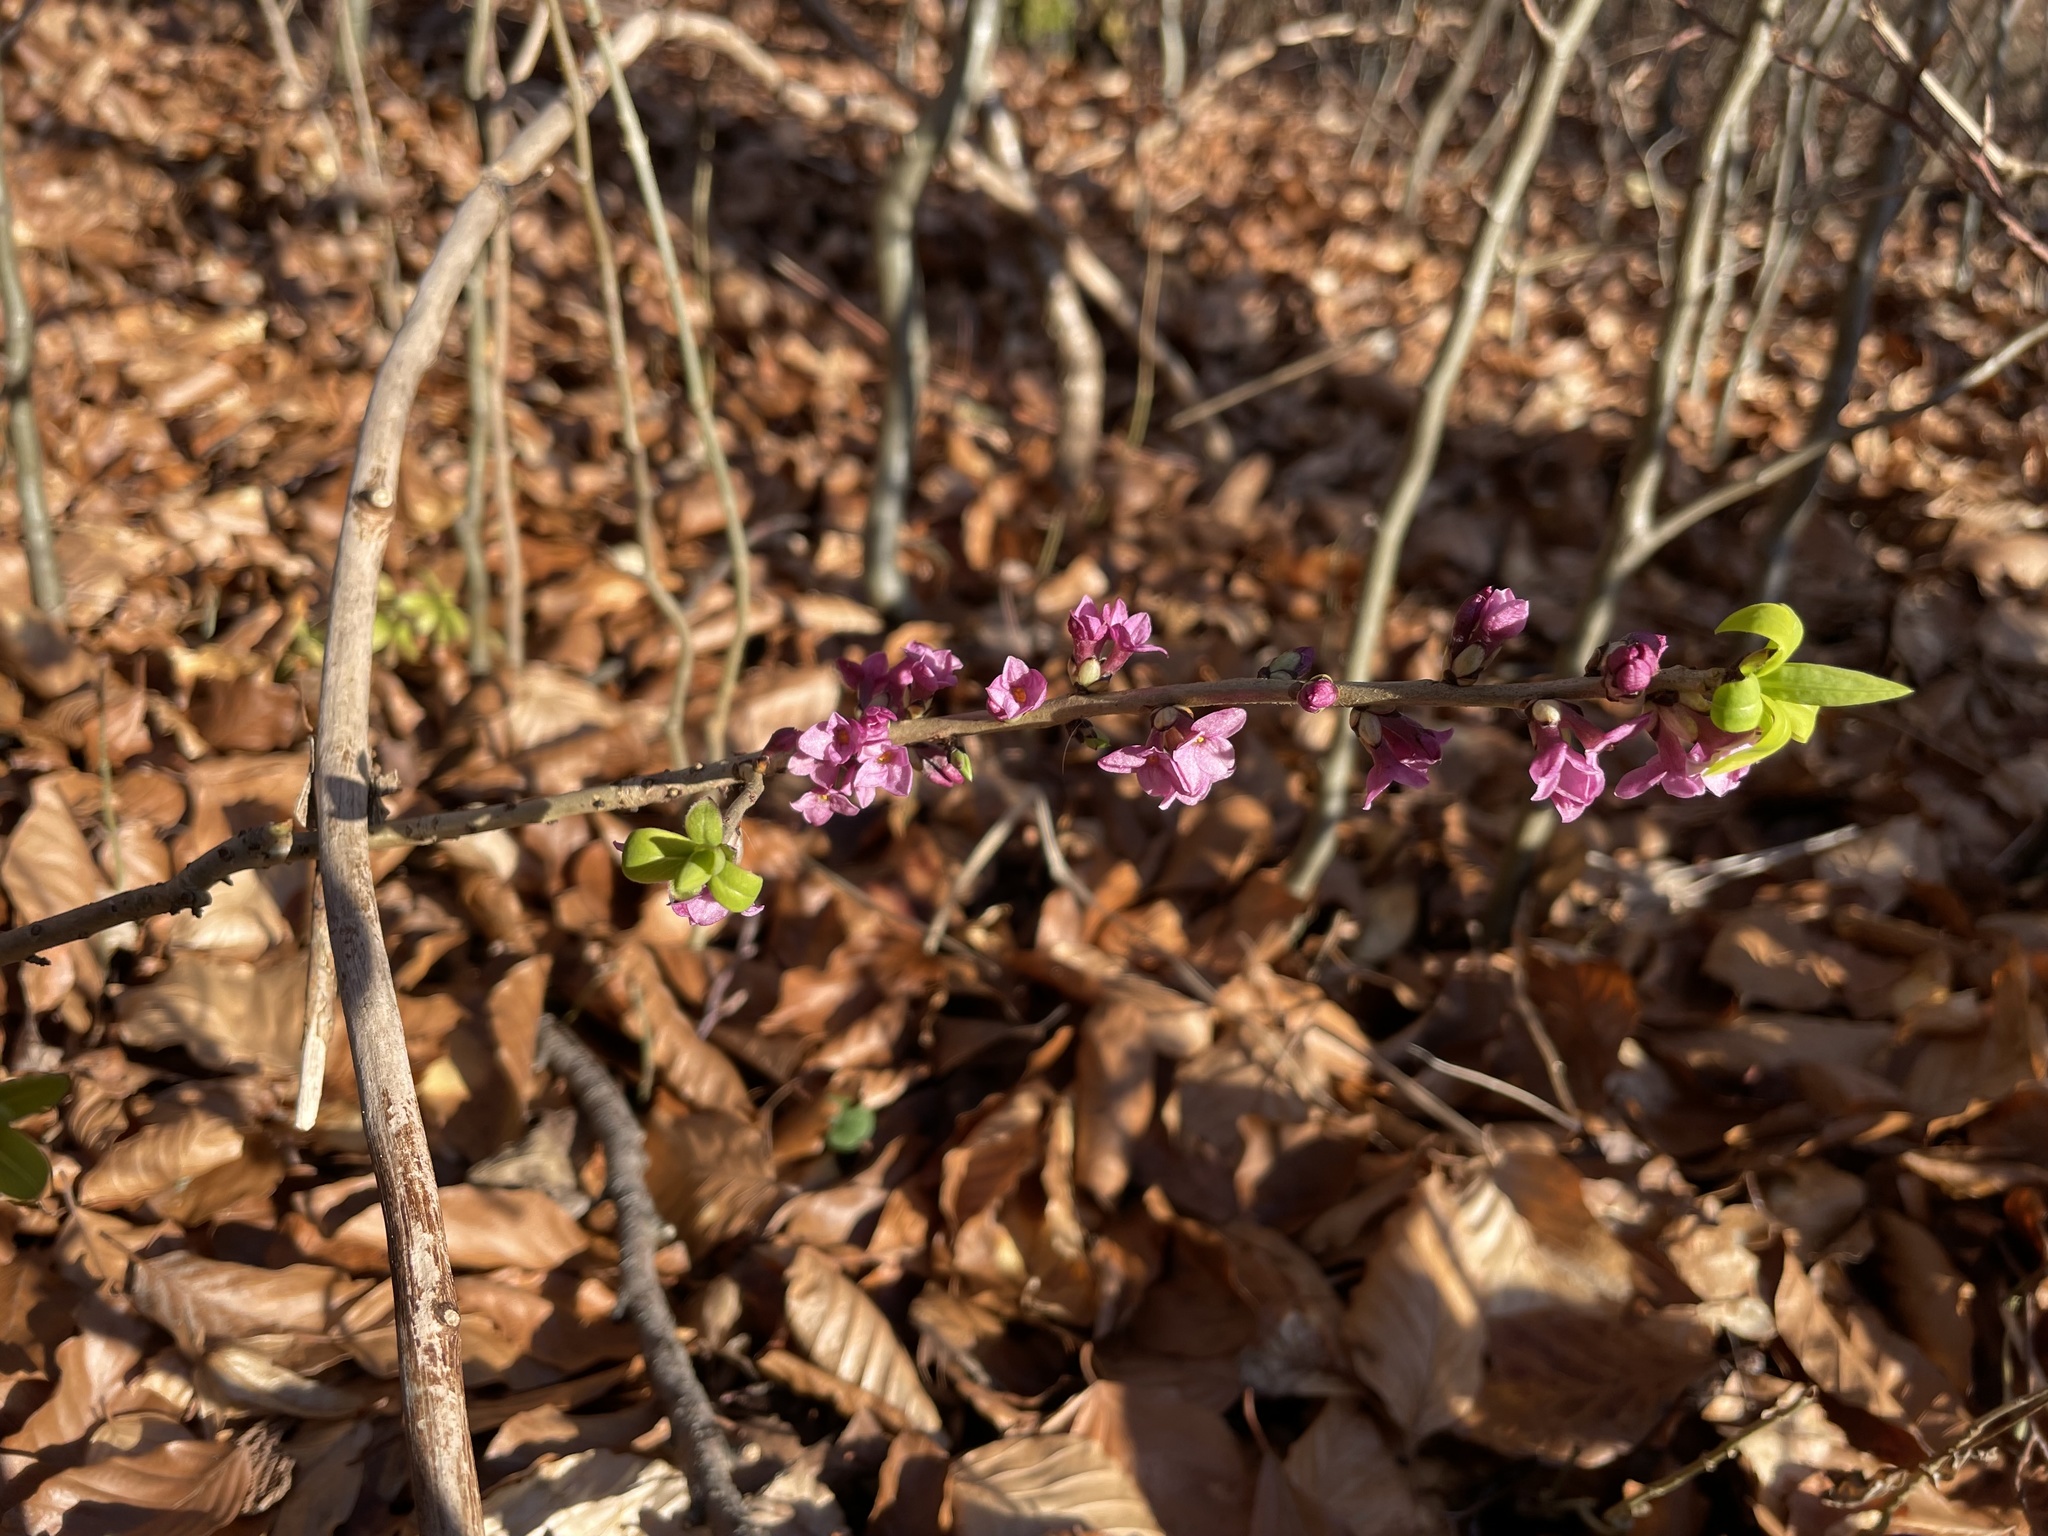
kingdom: Plantae
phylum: Tracheophyta
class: Magnoliopsida
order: Malvales
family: Thymelaeaceae
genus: Daphne
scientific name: Daphne mezereum
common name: Mezereon
